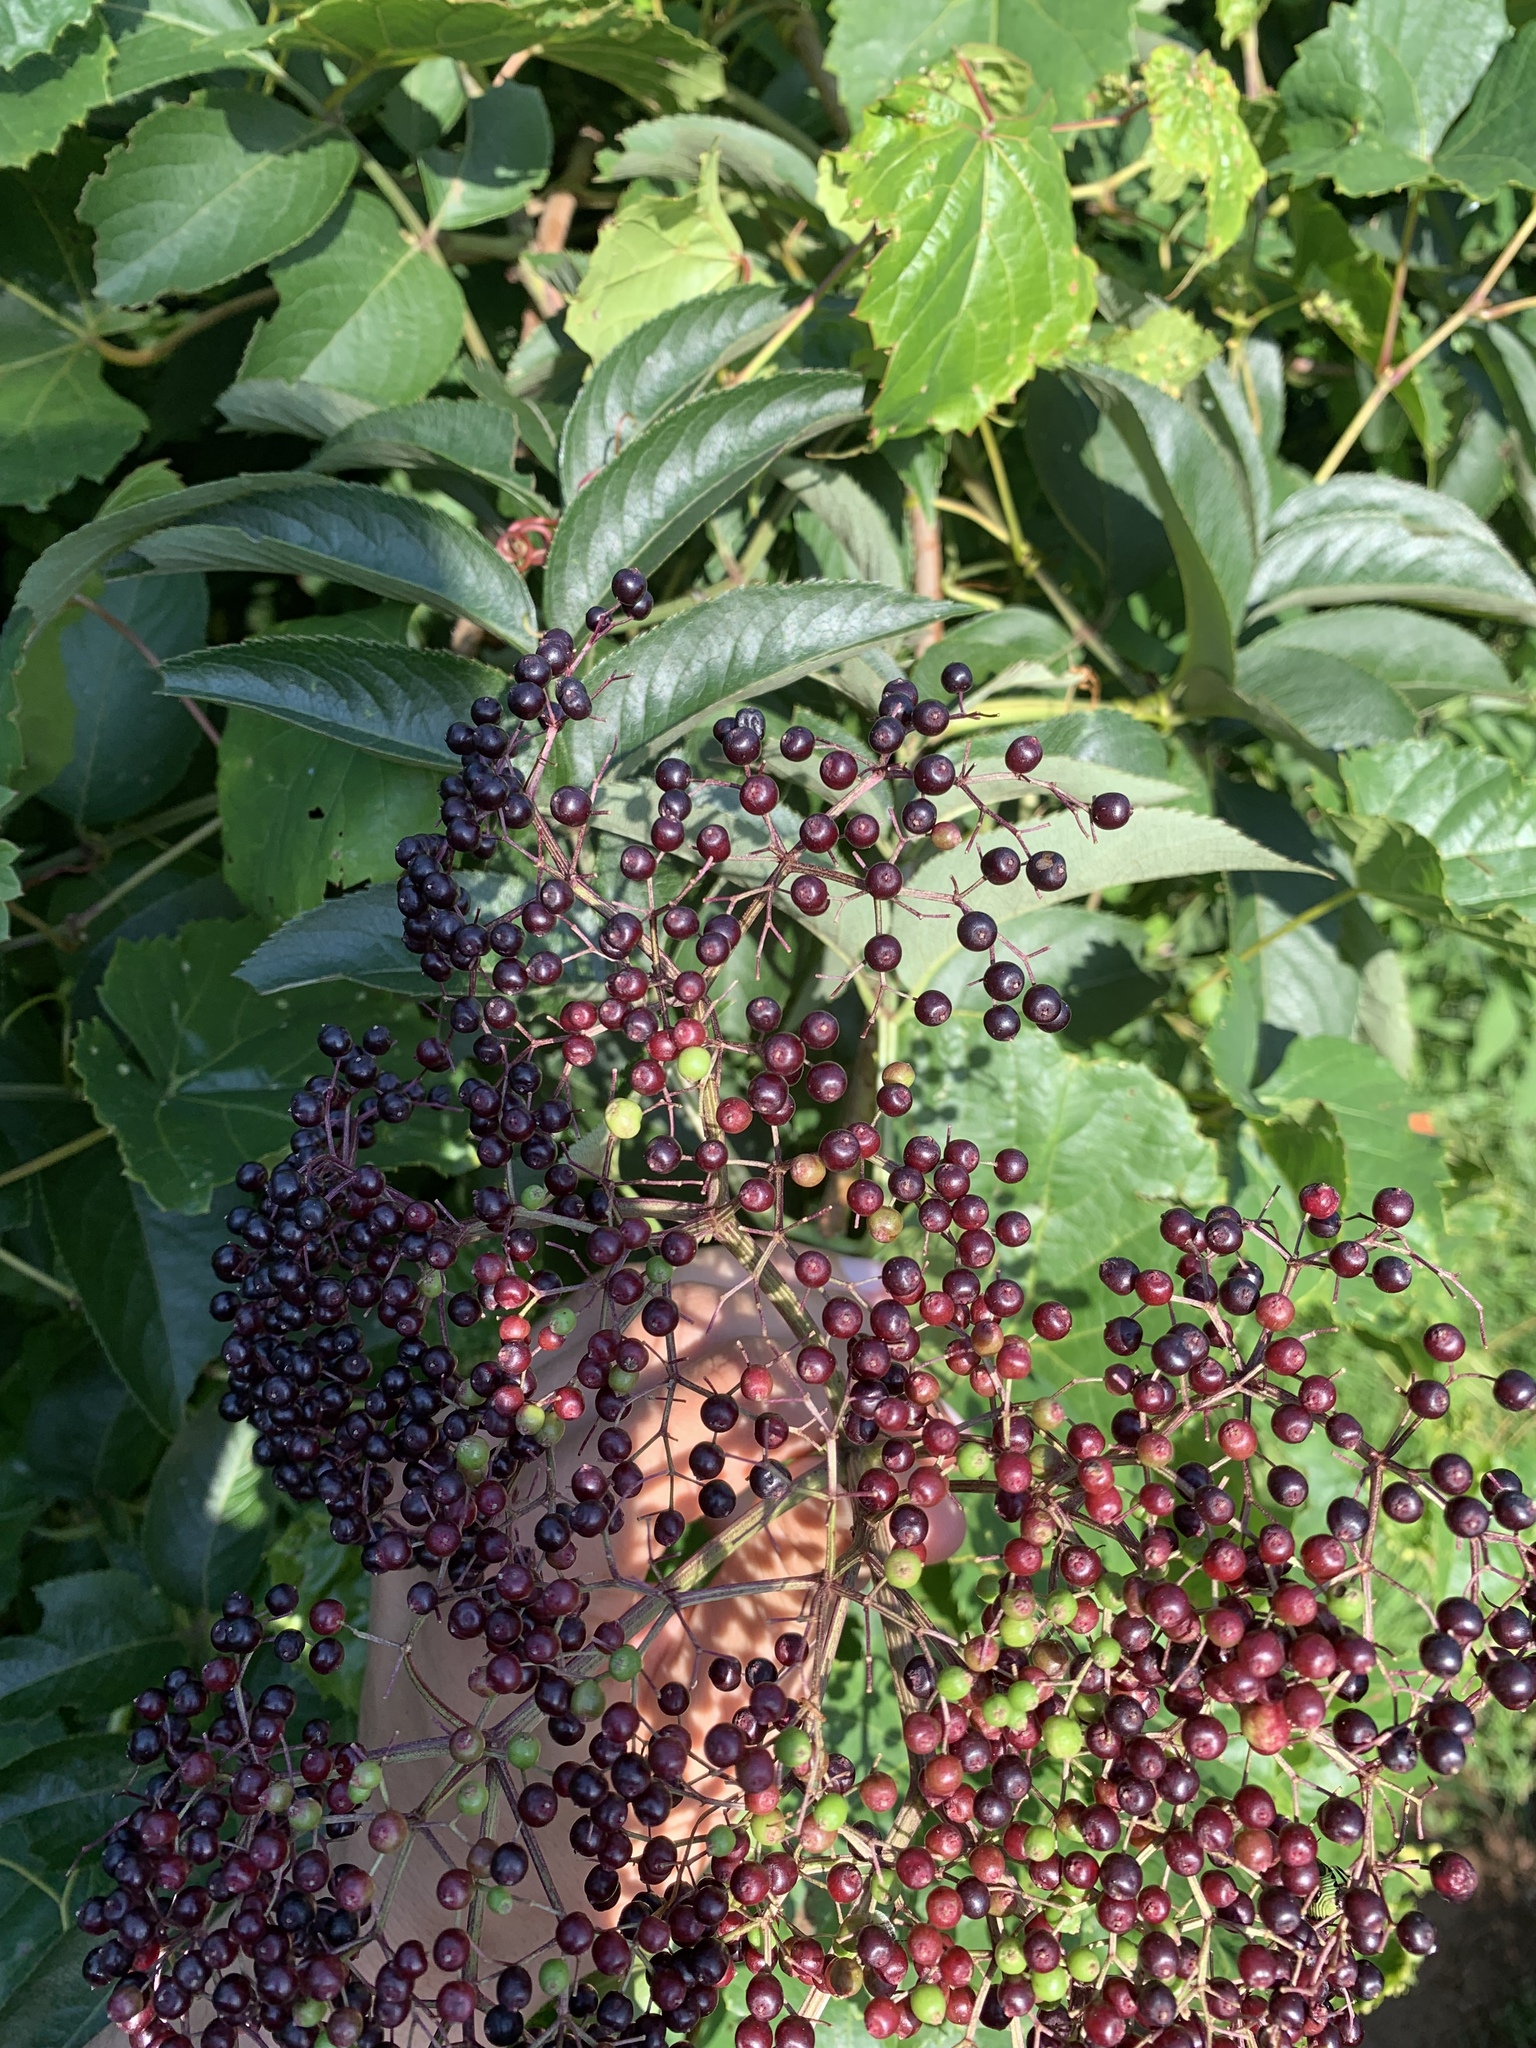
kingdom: Plantae
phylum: Tracheophyta
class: Magnoliopsida
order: Dipsacales
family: Viburnaceae
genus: Sambucus
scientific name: Sambucus canadensis
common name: American elder
